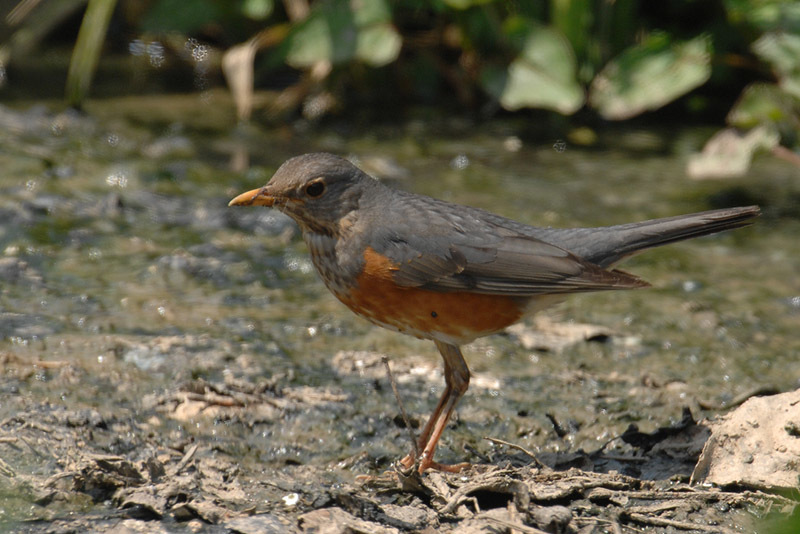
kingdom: Animalia
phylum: Chordata
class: Aves
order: Passeriformes
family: Turdidae
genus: Turdus
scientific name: Turdus hortulorum
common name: Grey-backed thrush
